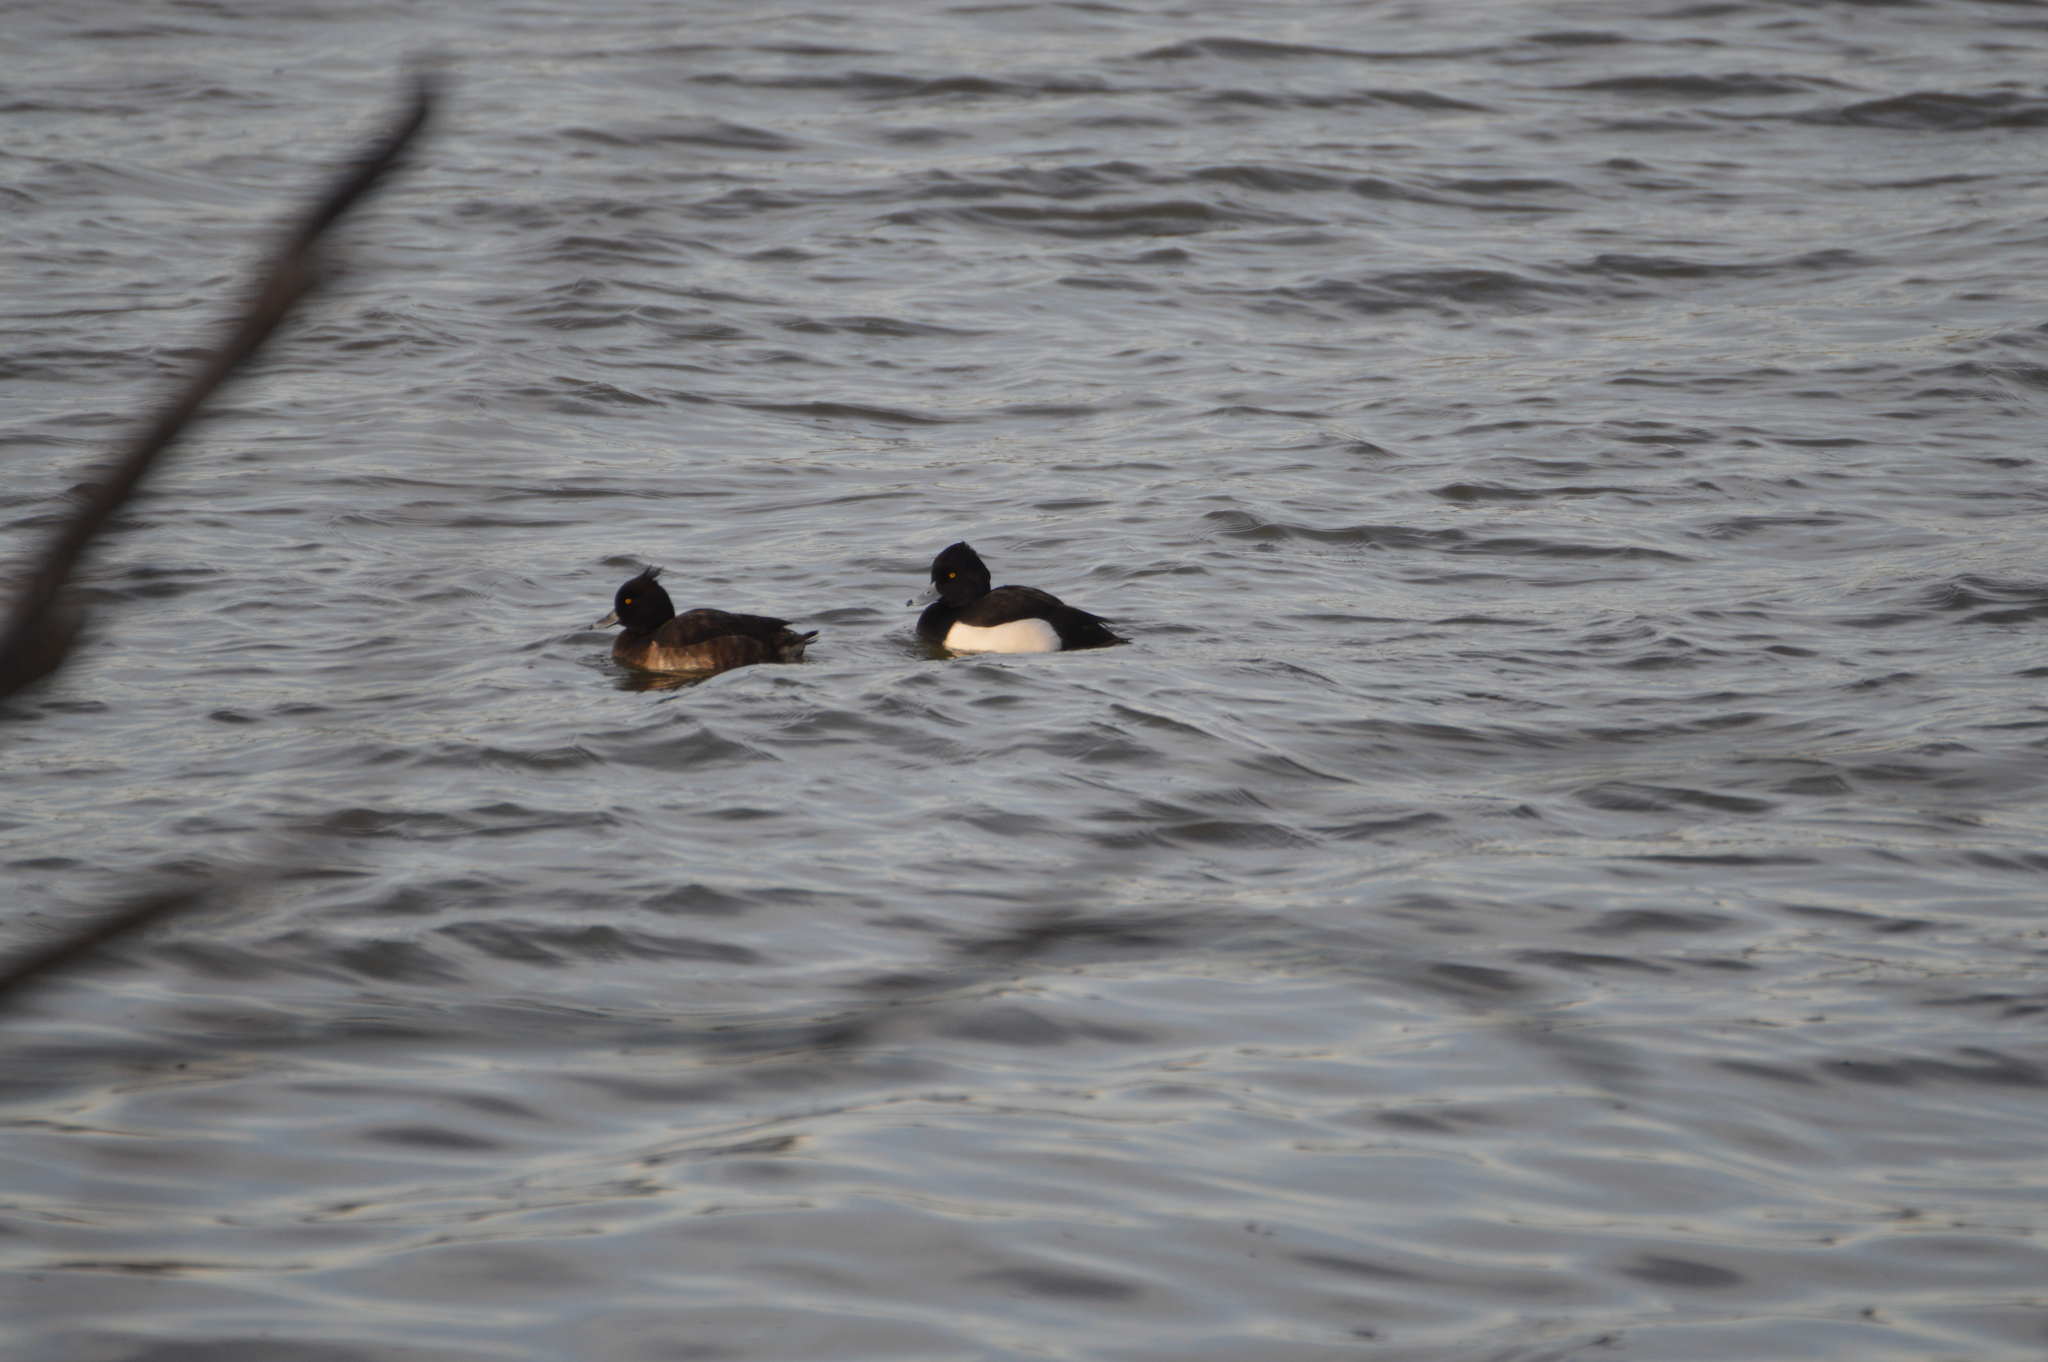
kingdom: Animalia
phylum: Chordata
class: Aves
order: Anseriformes
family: Anatidae
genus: Aythya
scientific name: Aythya fuligula
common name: Tufted duck
